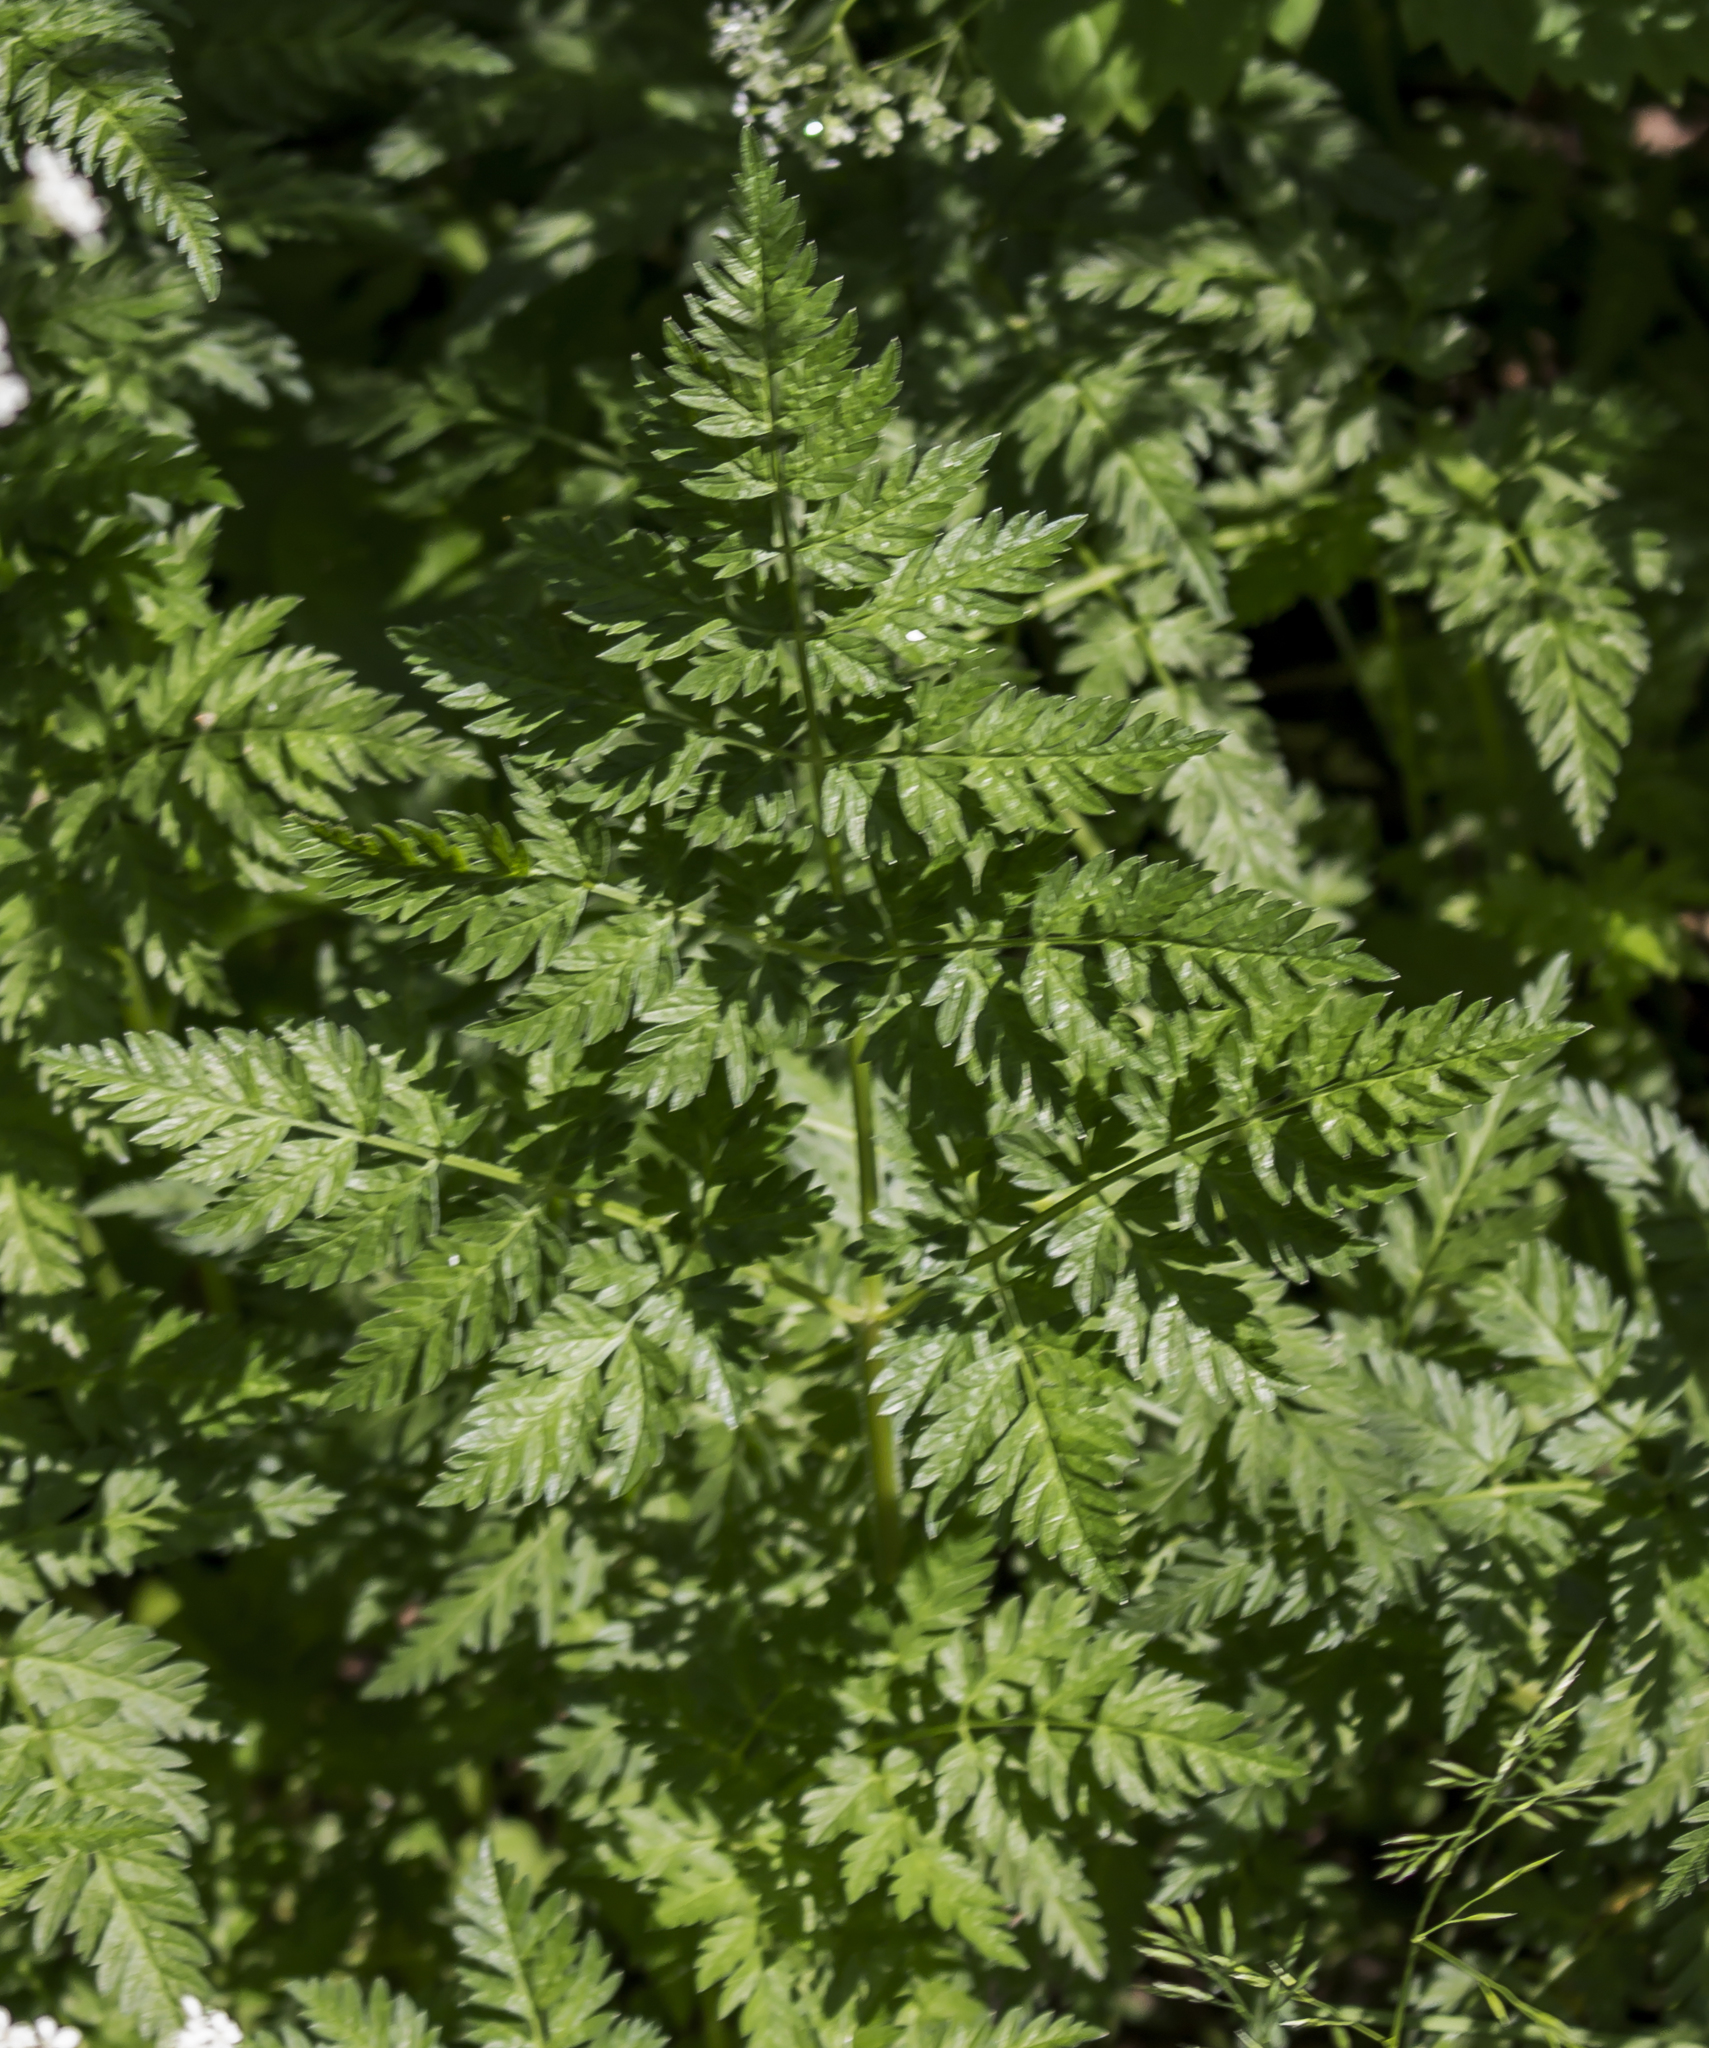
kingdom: Plantae
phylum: Tracheophyta
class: Magnoliopsida
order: Apiales
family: Apiaceae
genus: Anthriscus
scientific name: Anthriscus sylvestris
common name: Cow parsley
